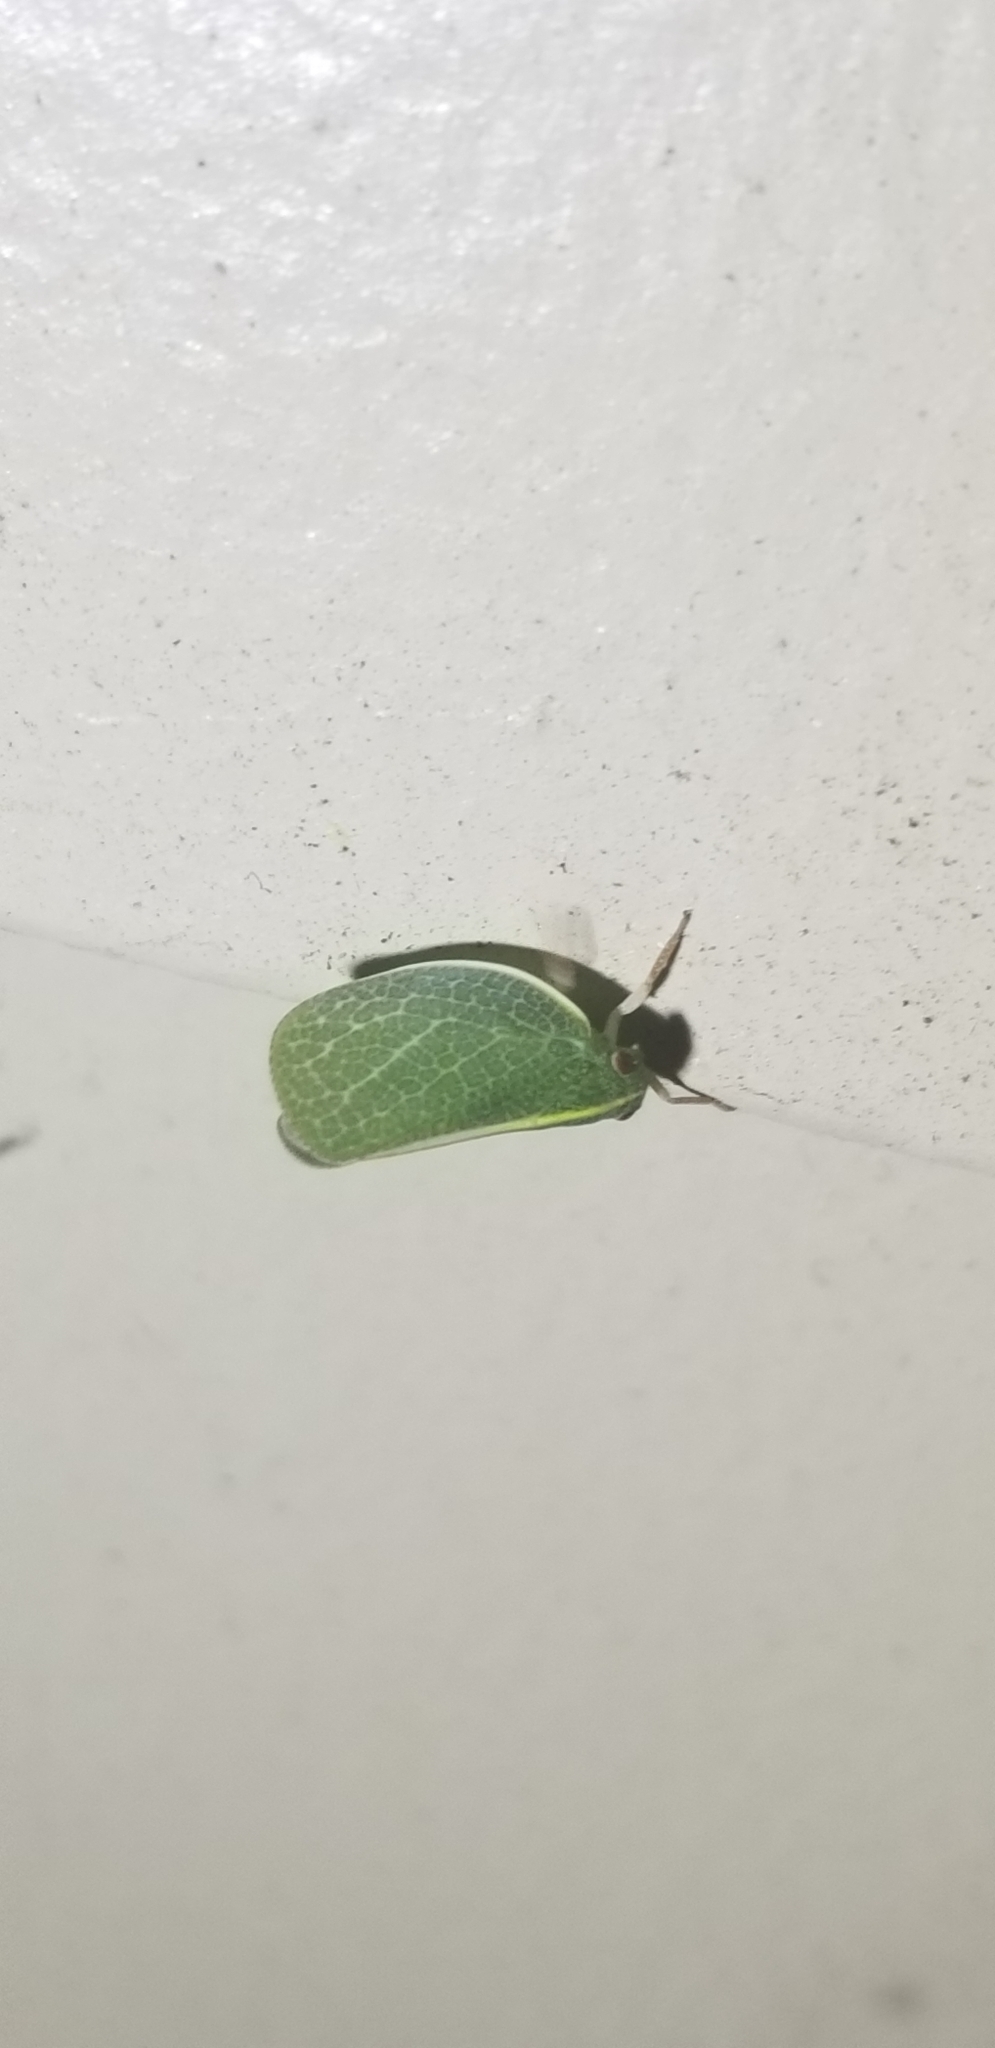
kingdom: Animalia
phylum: Arthropoda
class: Insecta
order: Hemiptera
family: Acanaloniidae
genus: Acanalonia
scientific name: Acanalonia servillei
